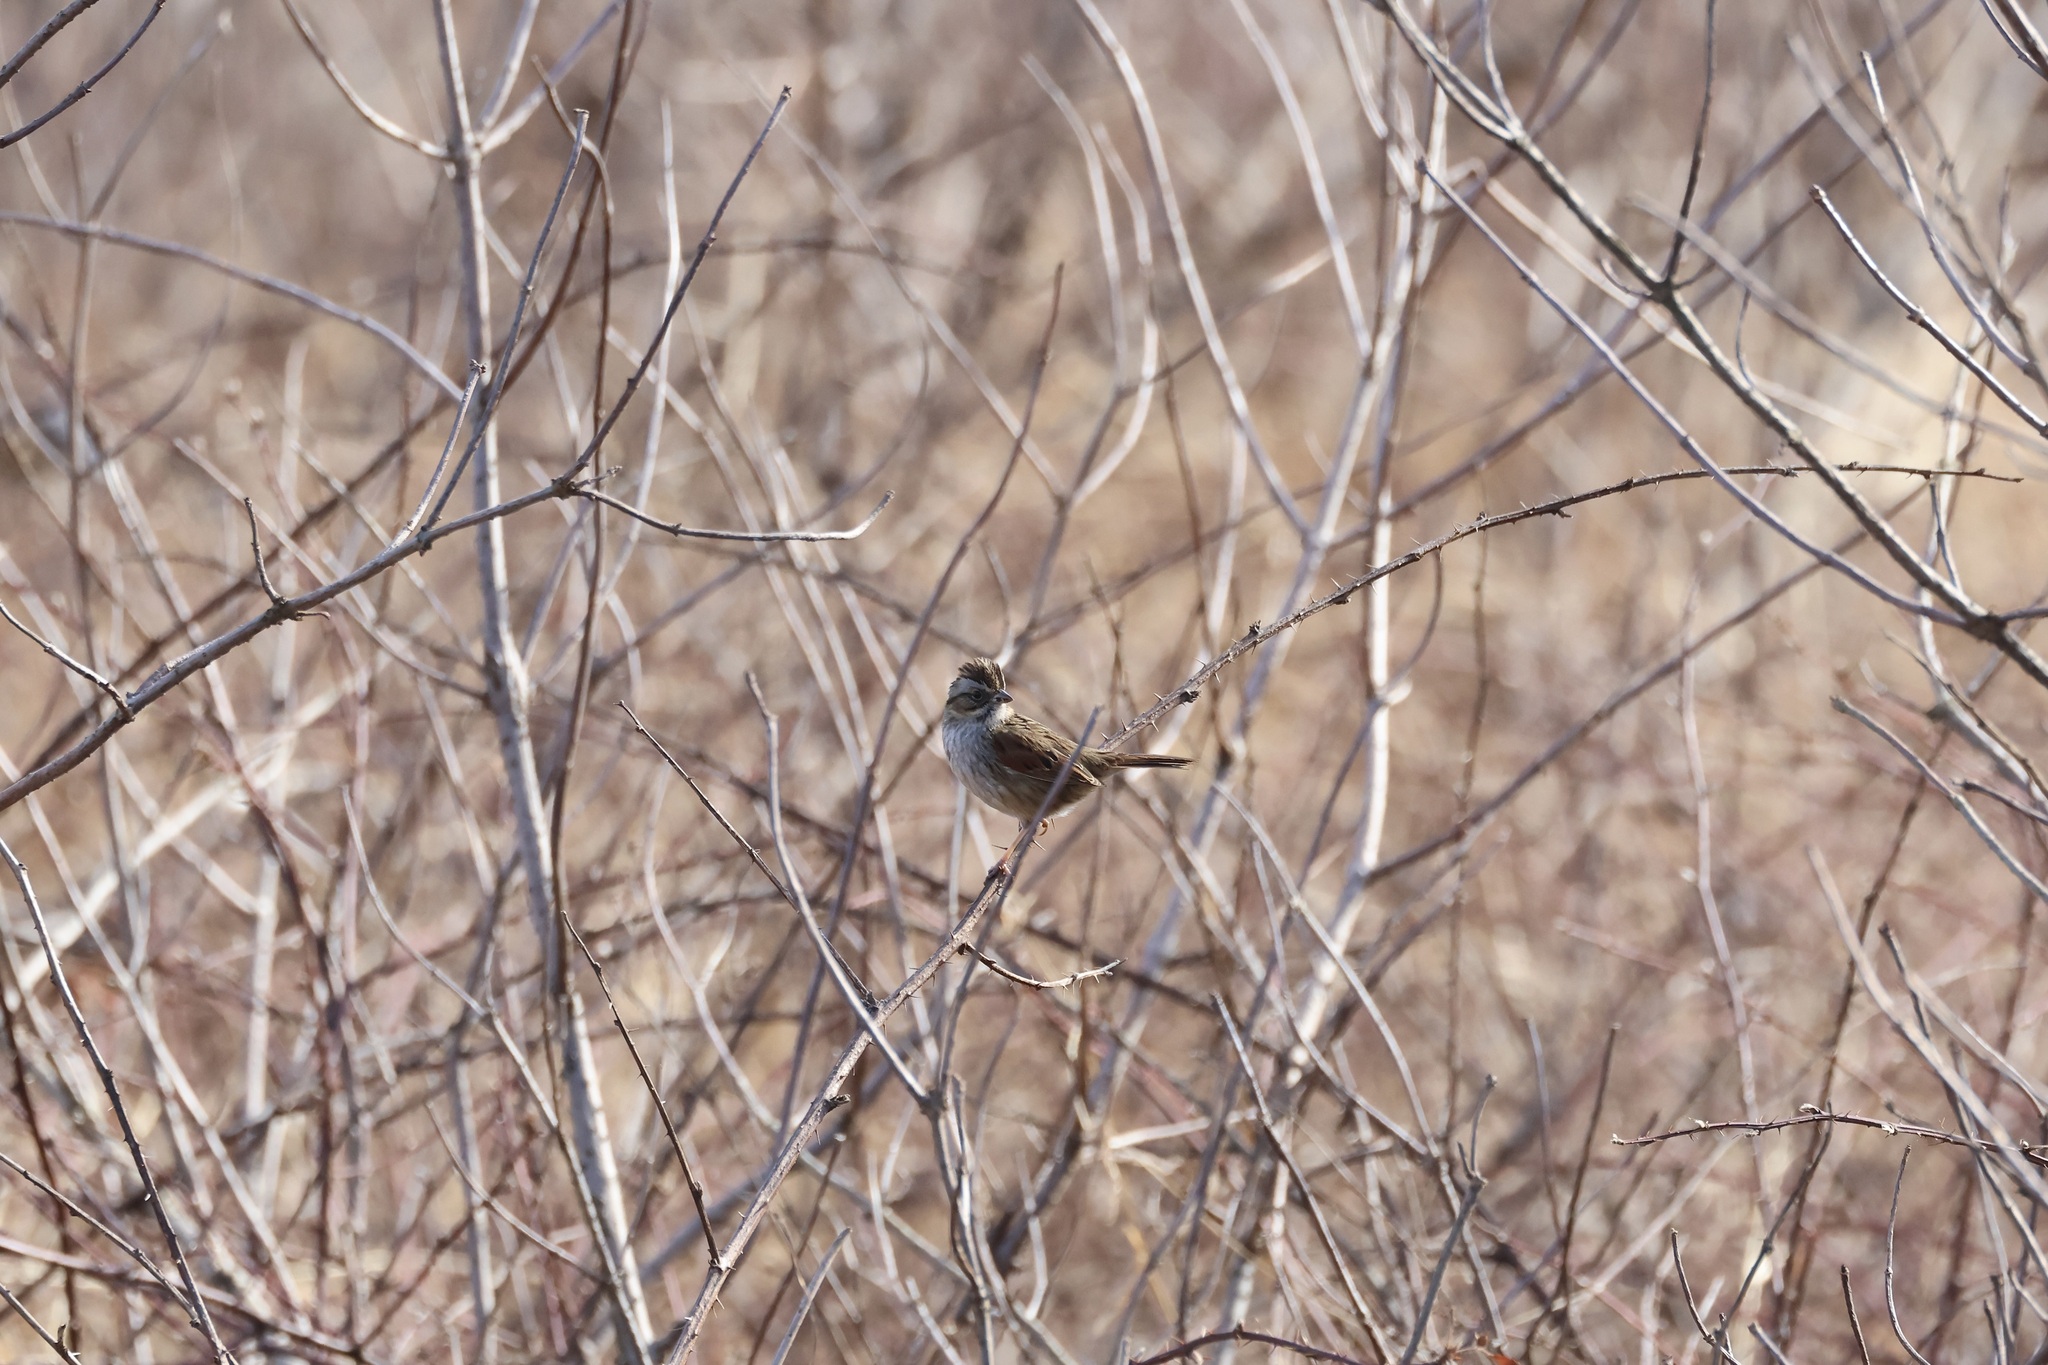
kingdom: Animalia
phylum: Chordata
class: Aves
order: Passeriformes
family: Passerellidae
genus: Melospiza
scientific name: Melospiza georgiana
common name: Swamp sparrow
